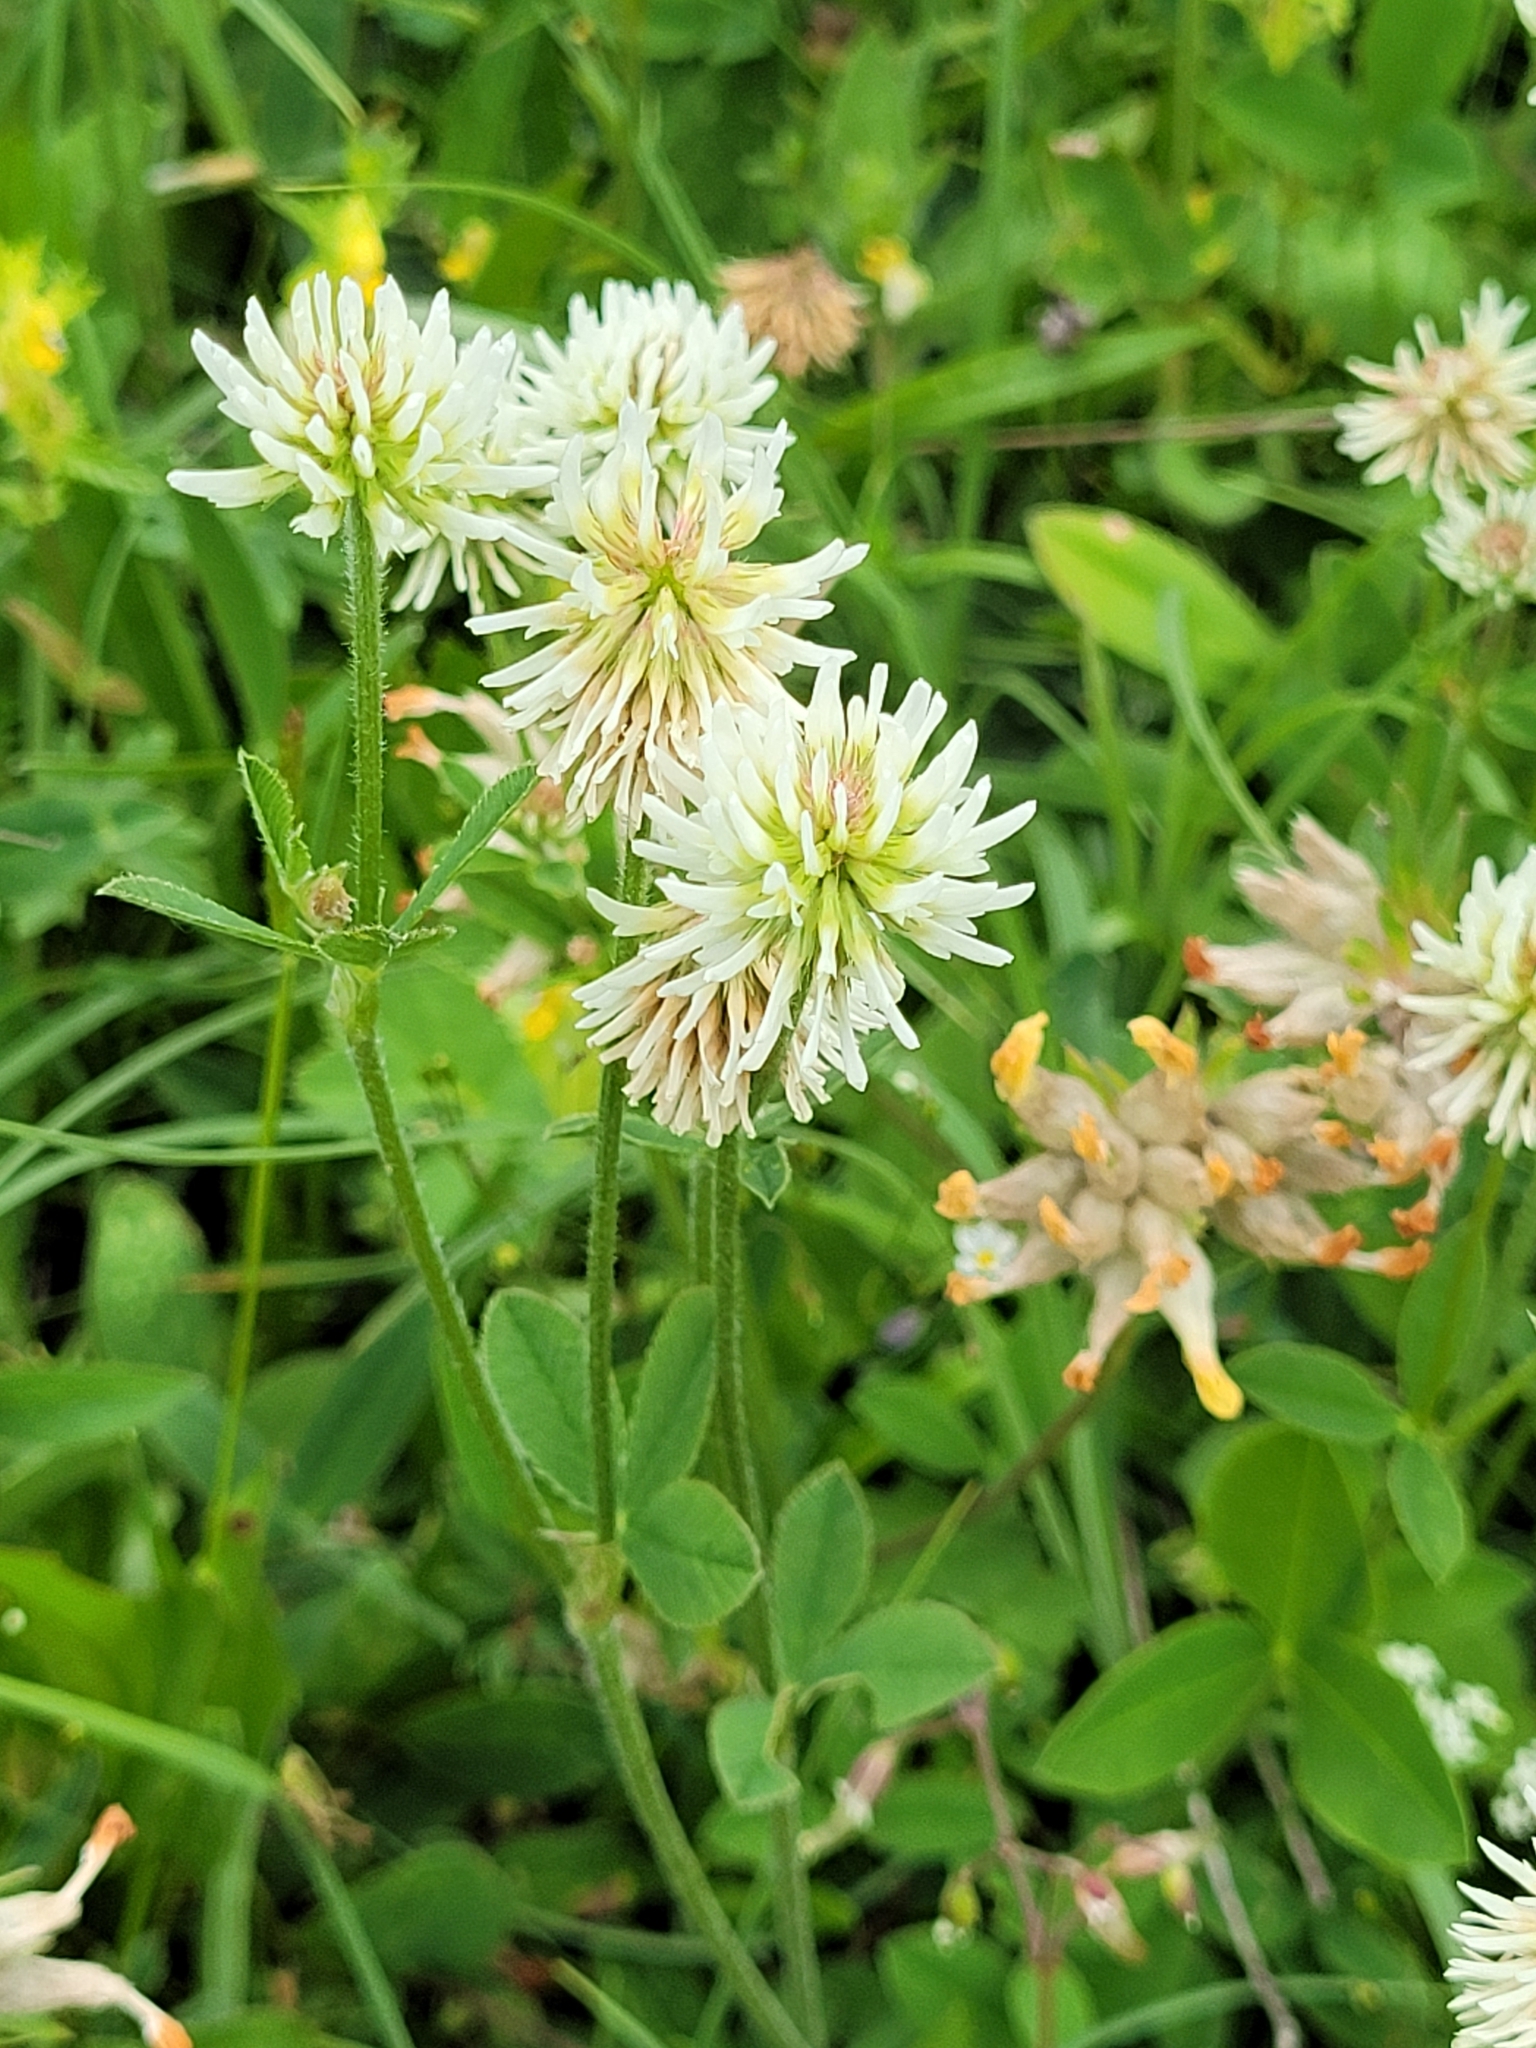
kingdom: Plantae
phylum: Tracheophyta
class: Magnoliopsida
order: Fabales
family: Fabaceae
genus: Trifolium
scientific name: Trifolium montanum
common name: Mountain clover
